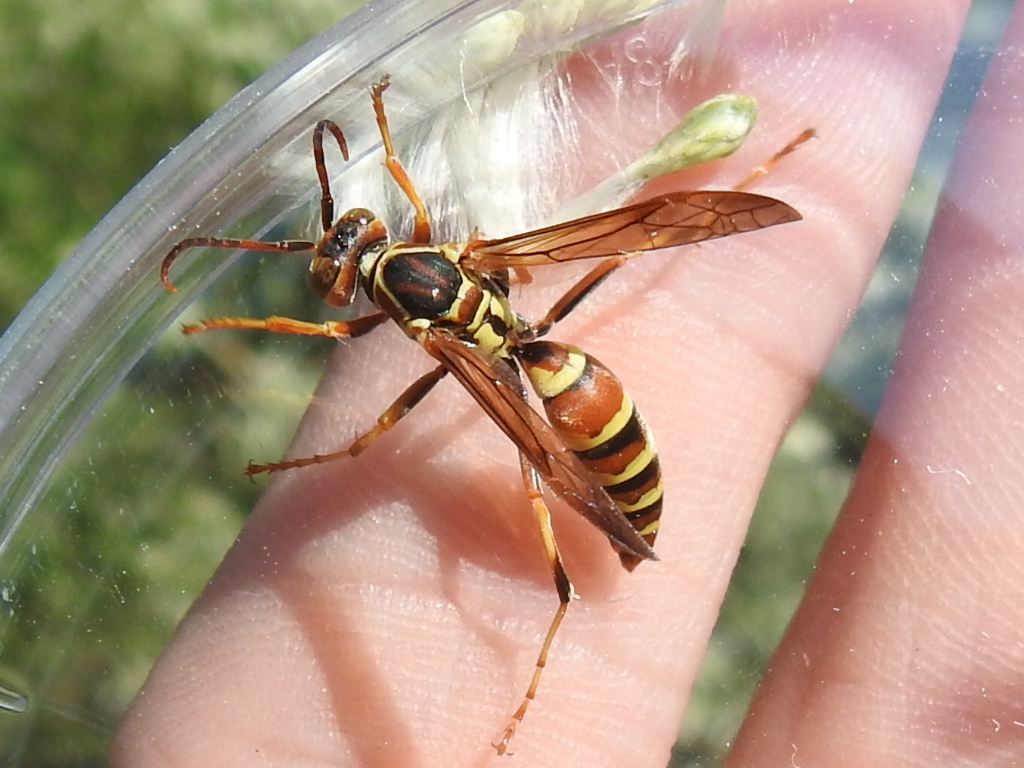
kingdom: Animalia
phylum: Arthropoda
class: Insecta
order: Hymenoptera
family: Eumenidae
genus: Polistes
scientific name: Polistes dorsalis
